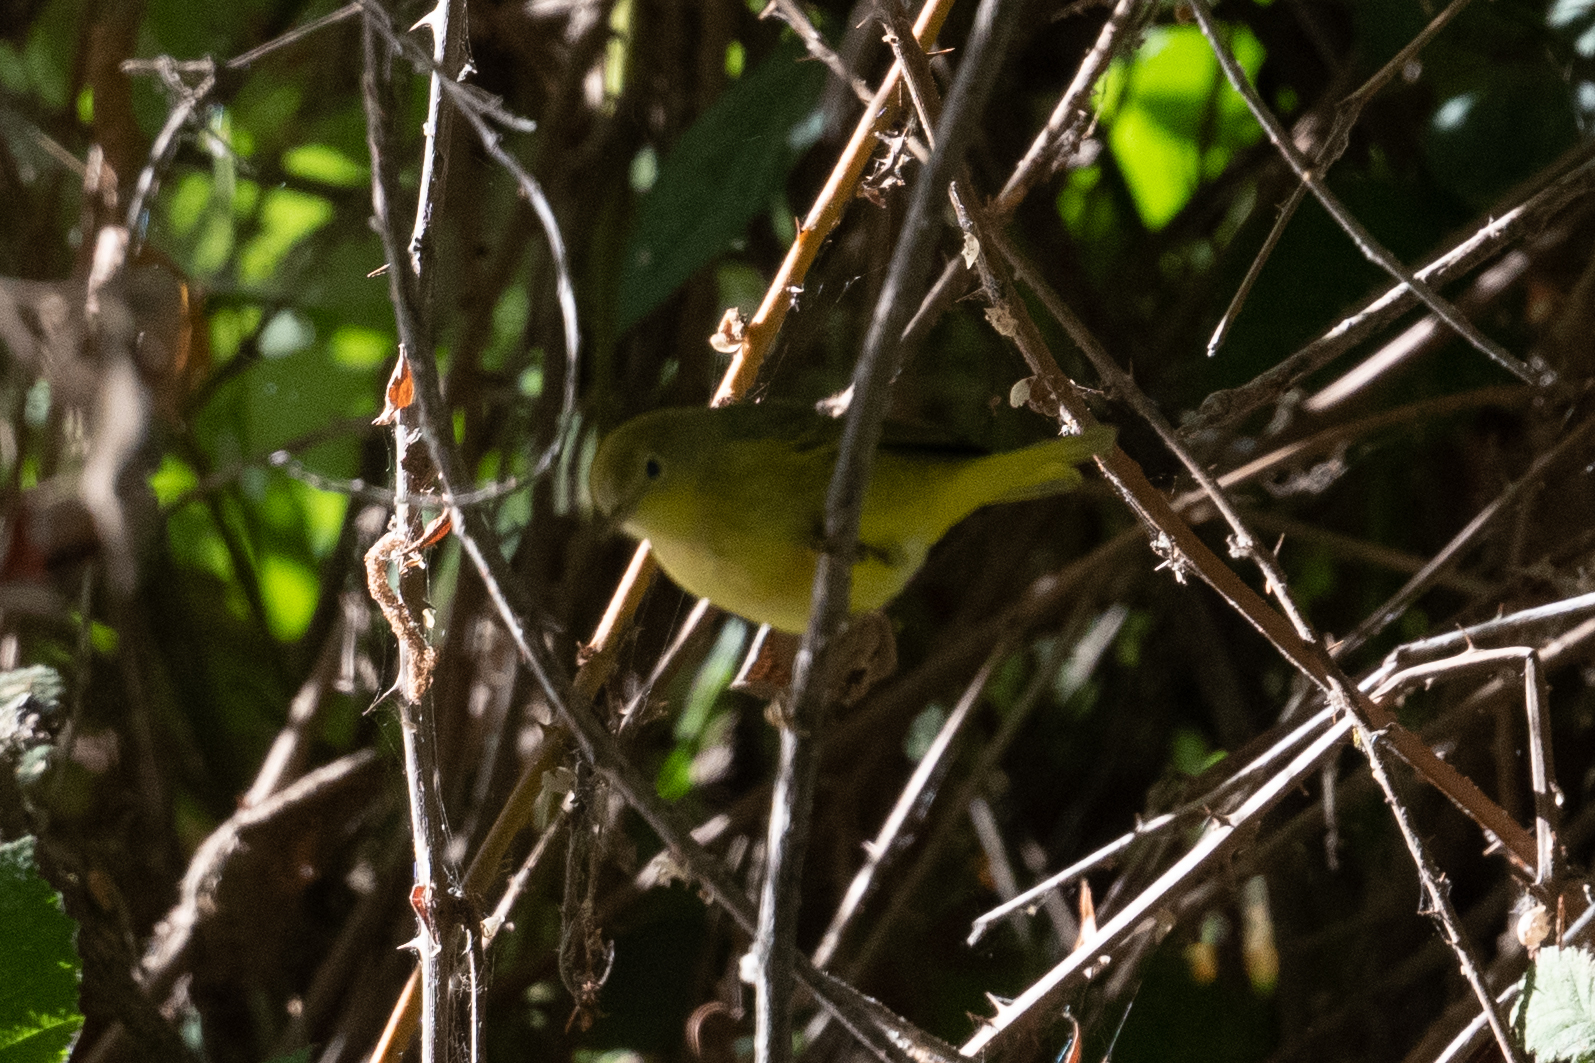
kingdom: Animalia
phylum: Chordata
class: Aves
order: Passeriformes
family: Parulidae
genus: Setophaga
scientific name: Setophaga petechia
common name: Yellow warbler
